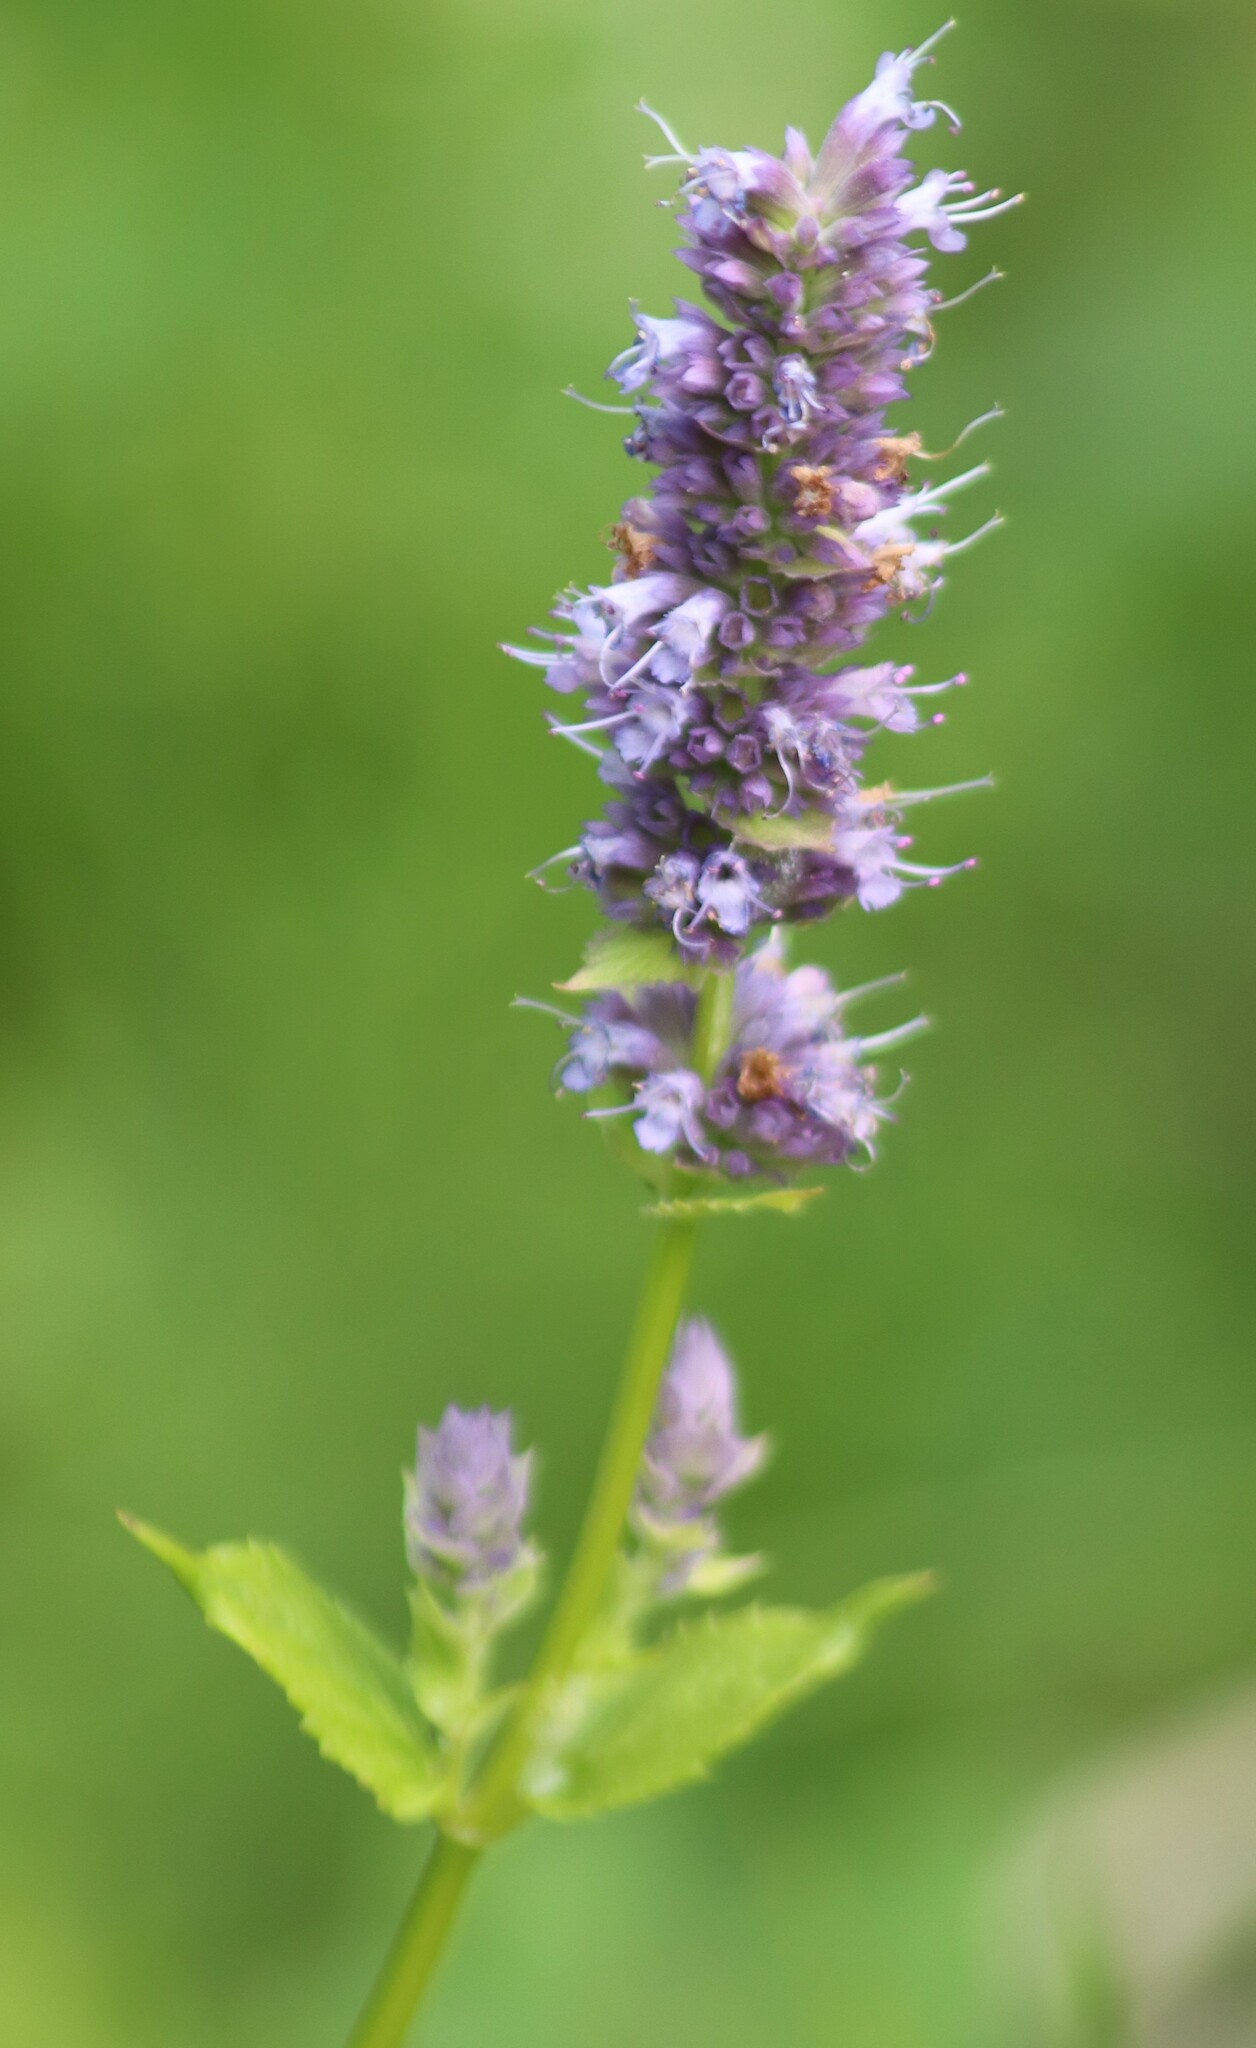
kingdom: Plantae
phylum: Tracheophyta
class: Magnoliopsida
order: Lamiales
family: Lamiaceae
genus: Agastache
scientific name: Agastache foeniculum
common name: Anise hyssop
